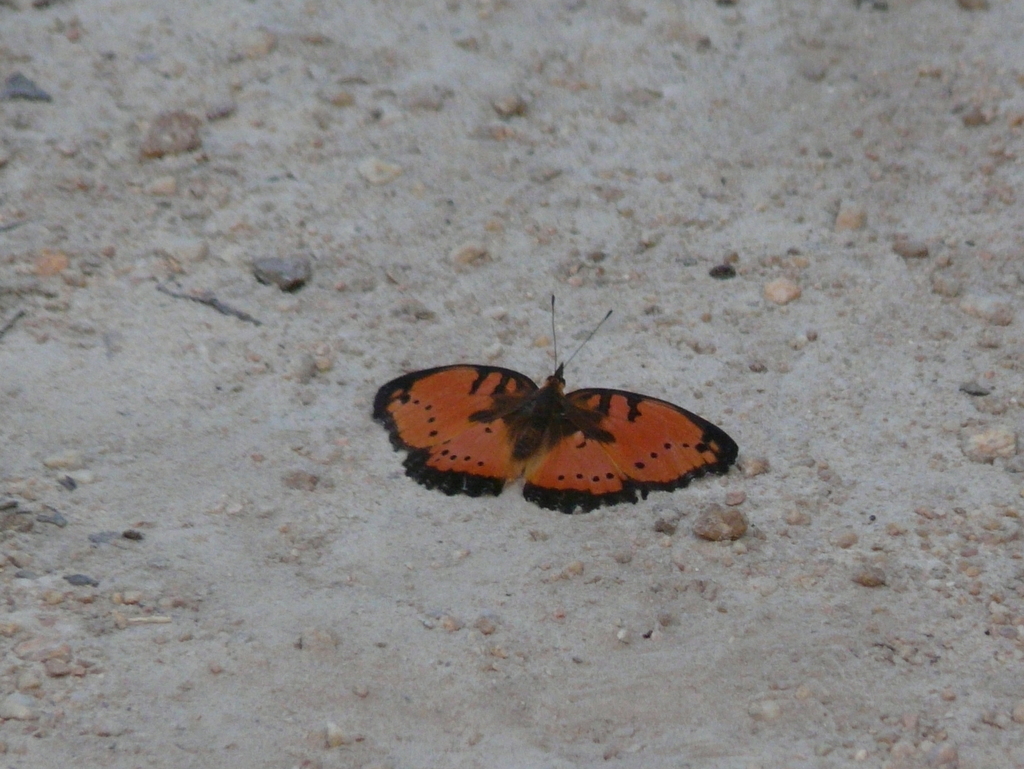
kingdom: Animalia
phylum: Arthropoda
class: Insecta
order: Lepidoptera
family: Nymphalidae
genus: Precis
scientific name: Precis octavia
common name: Gaudy commodore
